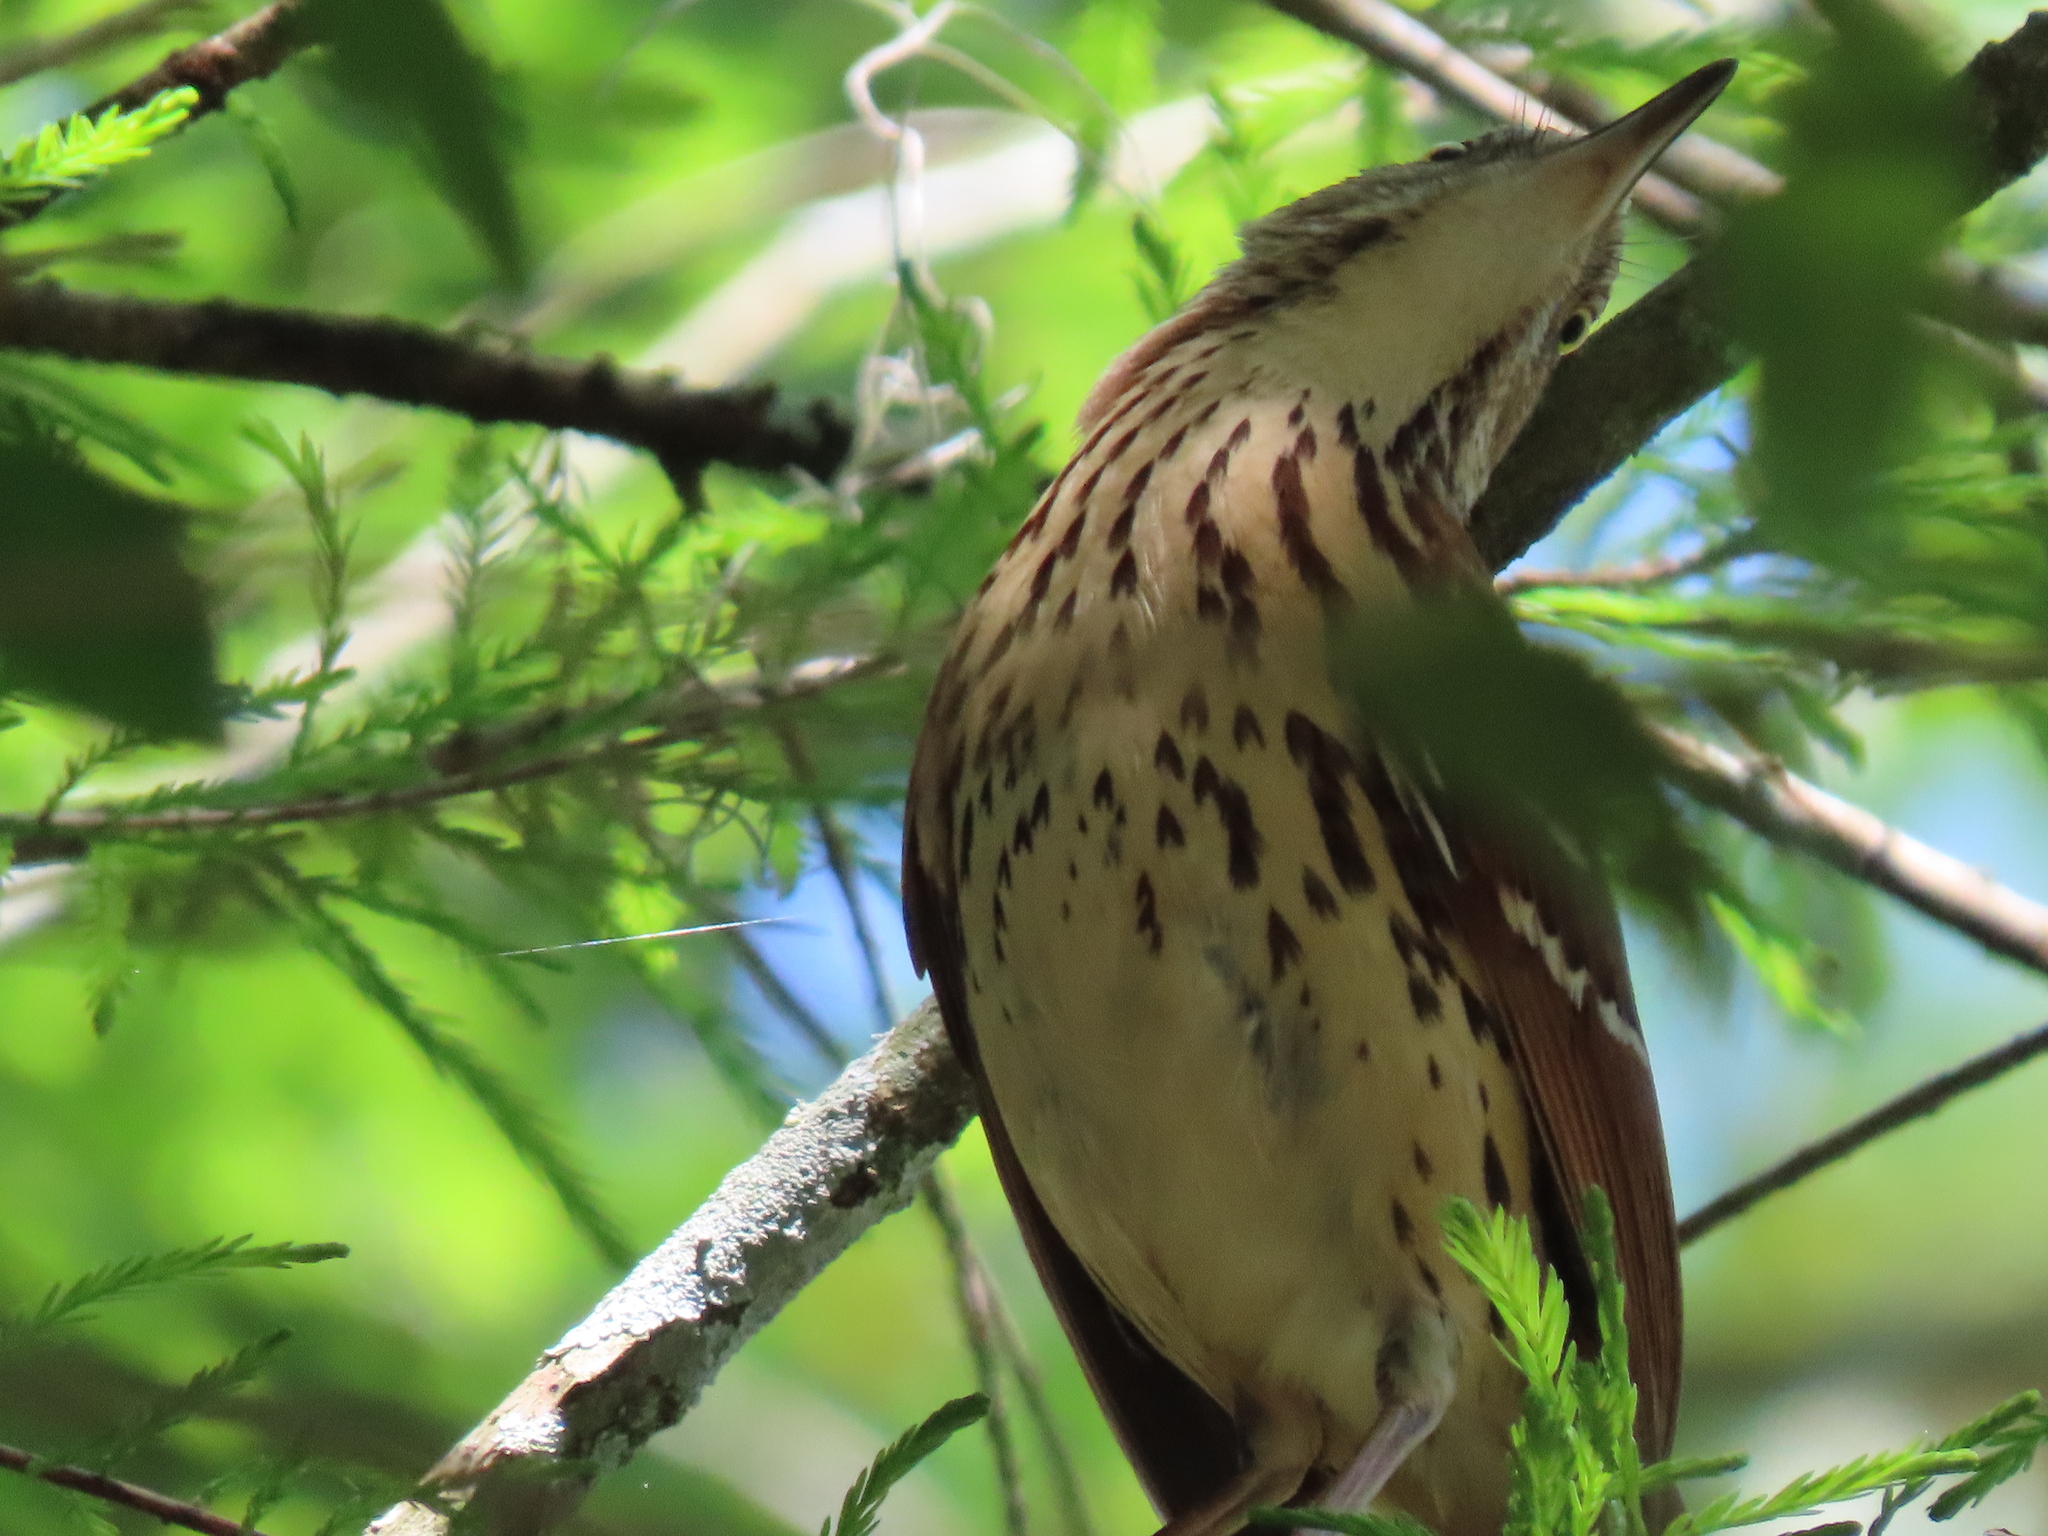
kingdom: Animalia
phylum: Chordata
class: Aves
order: Passeriformes
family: Mimidae
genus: Toxostoma
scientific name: Toxostoma rufum
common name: Brown thrasher
